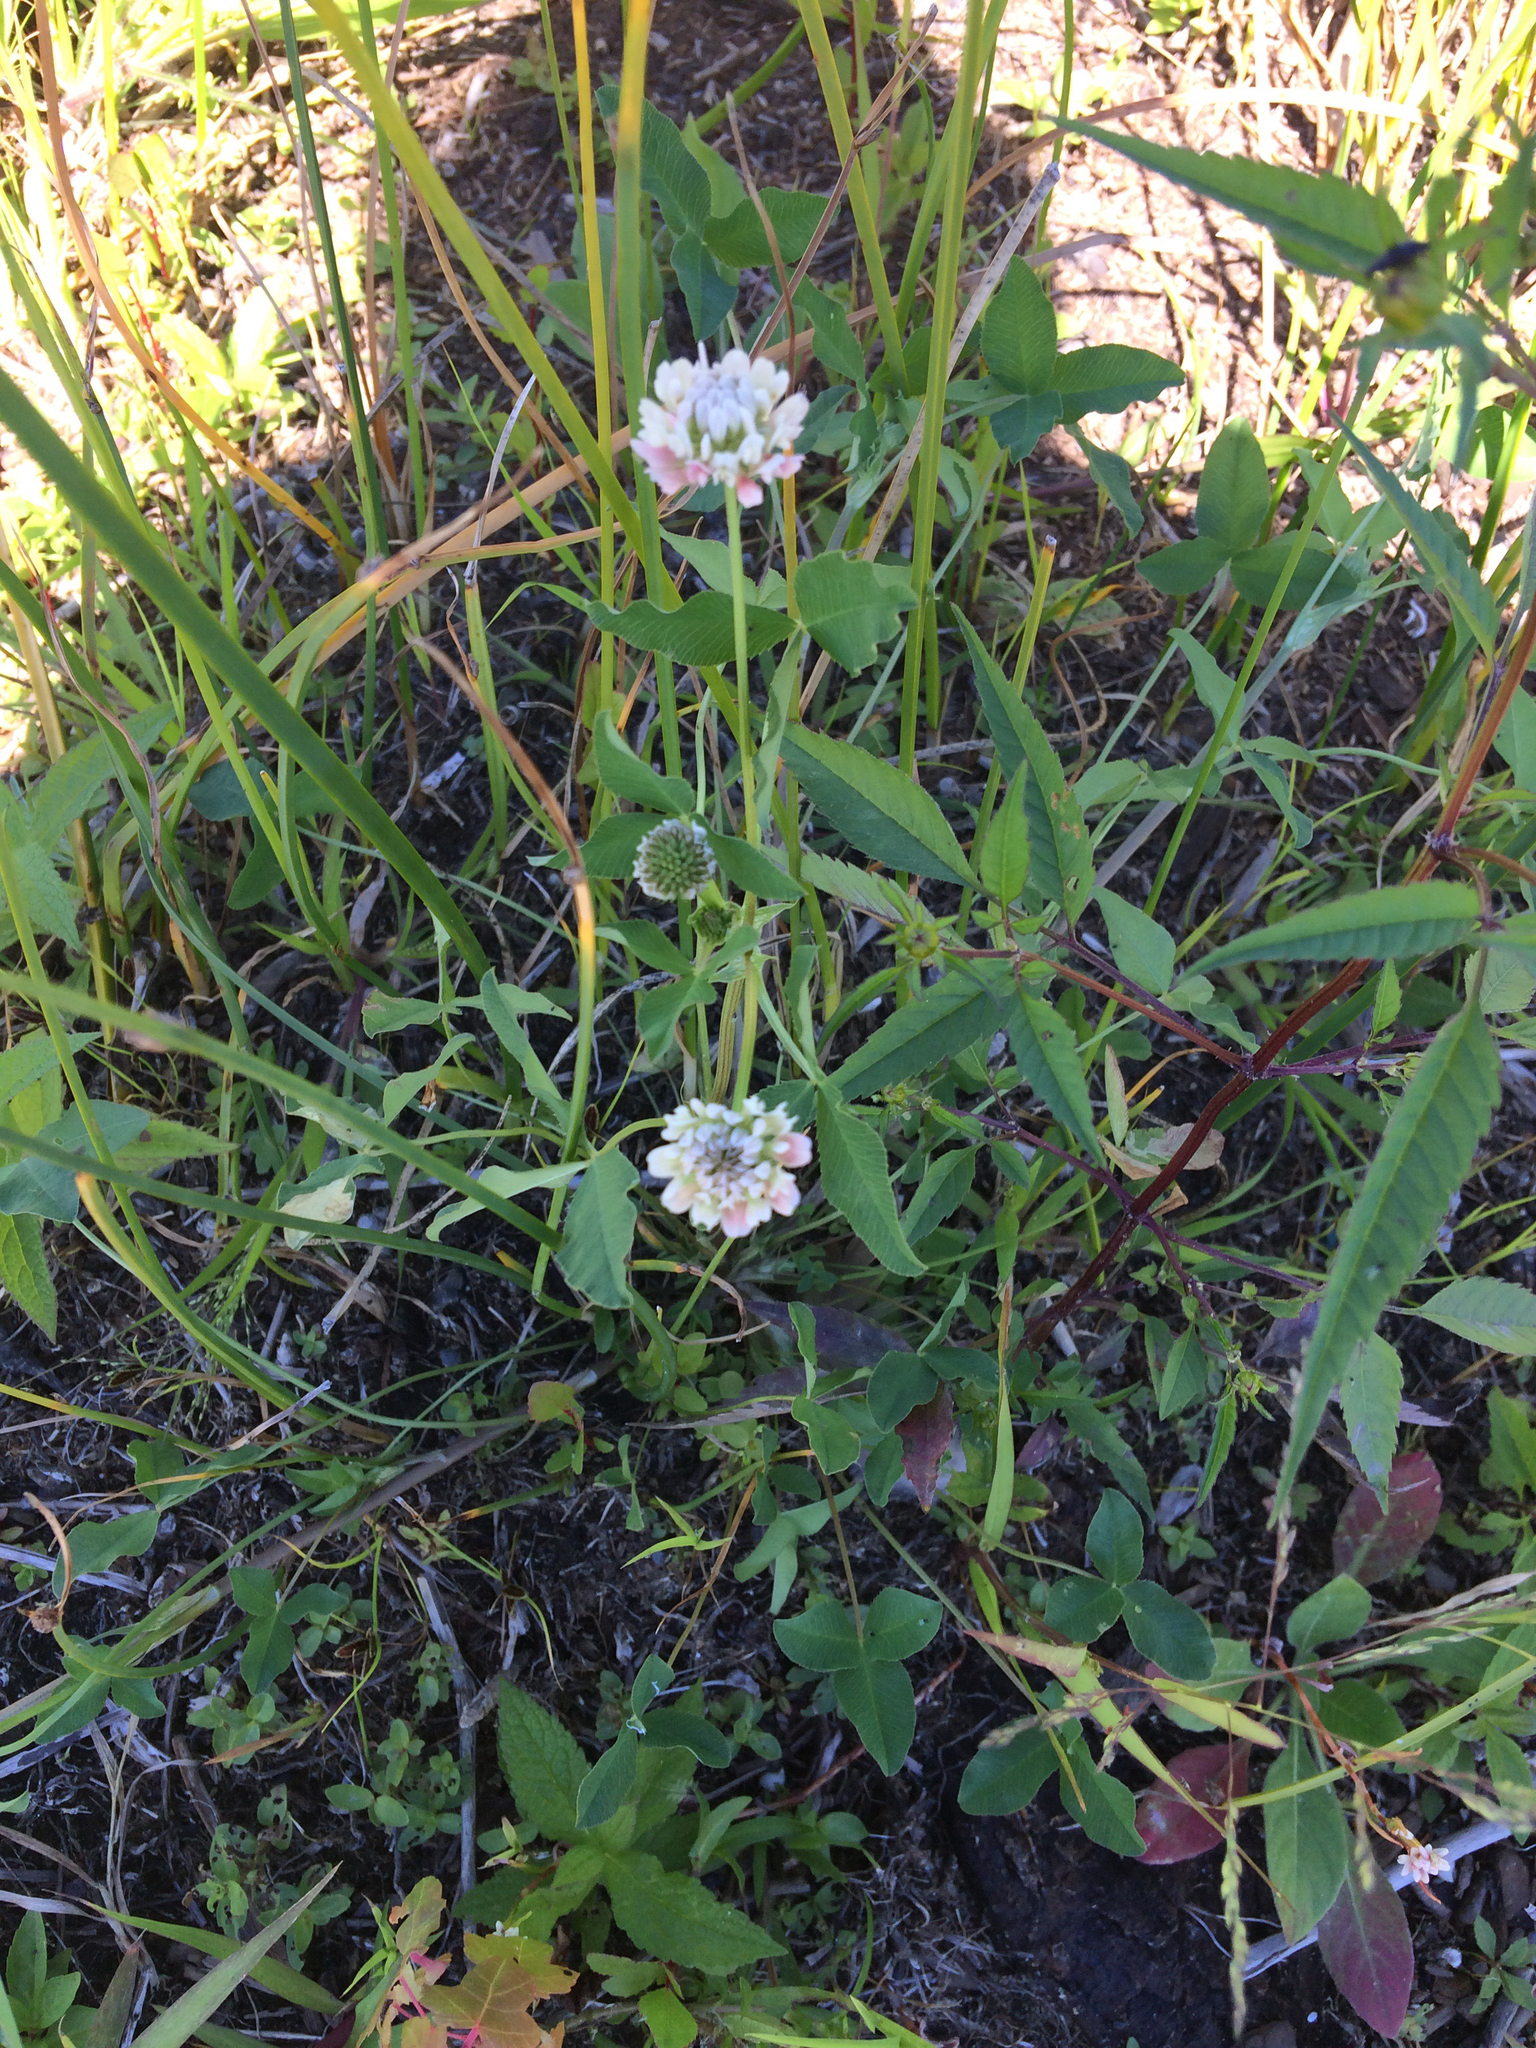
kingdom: Plantae
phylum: Tracheophyta
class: Magnoliopsida
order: Fabales
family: Fabaceae
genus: Trifolium
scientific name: Trifolium hybridum
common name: Alsike clover
